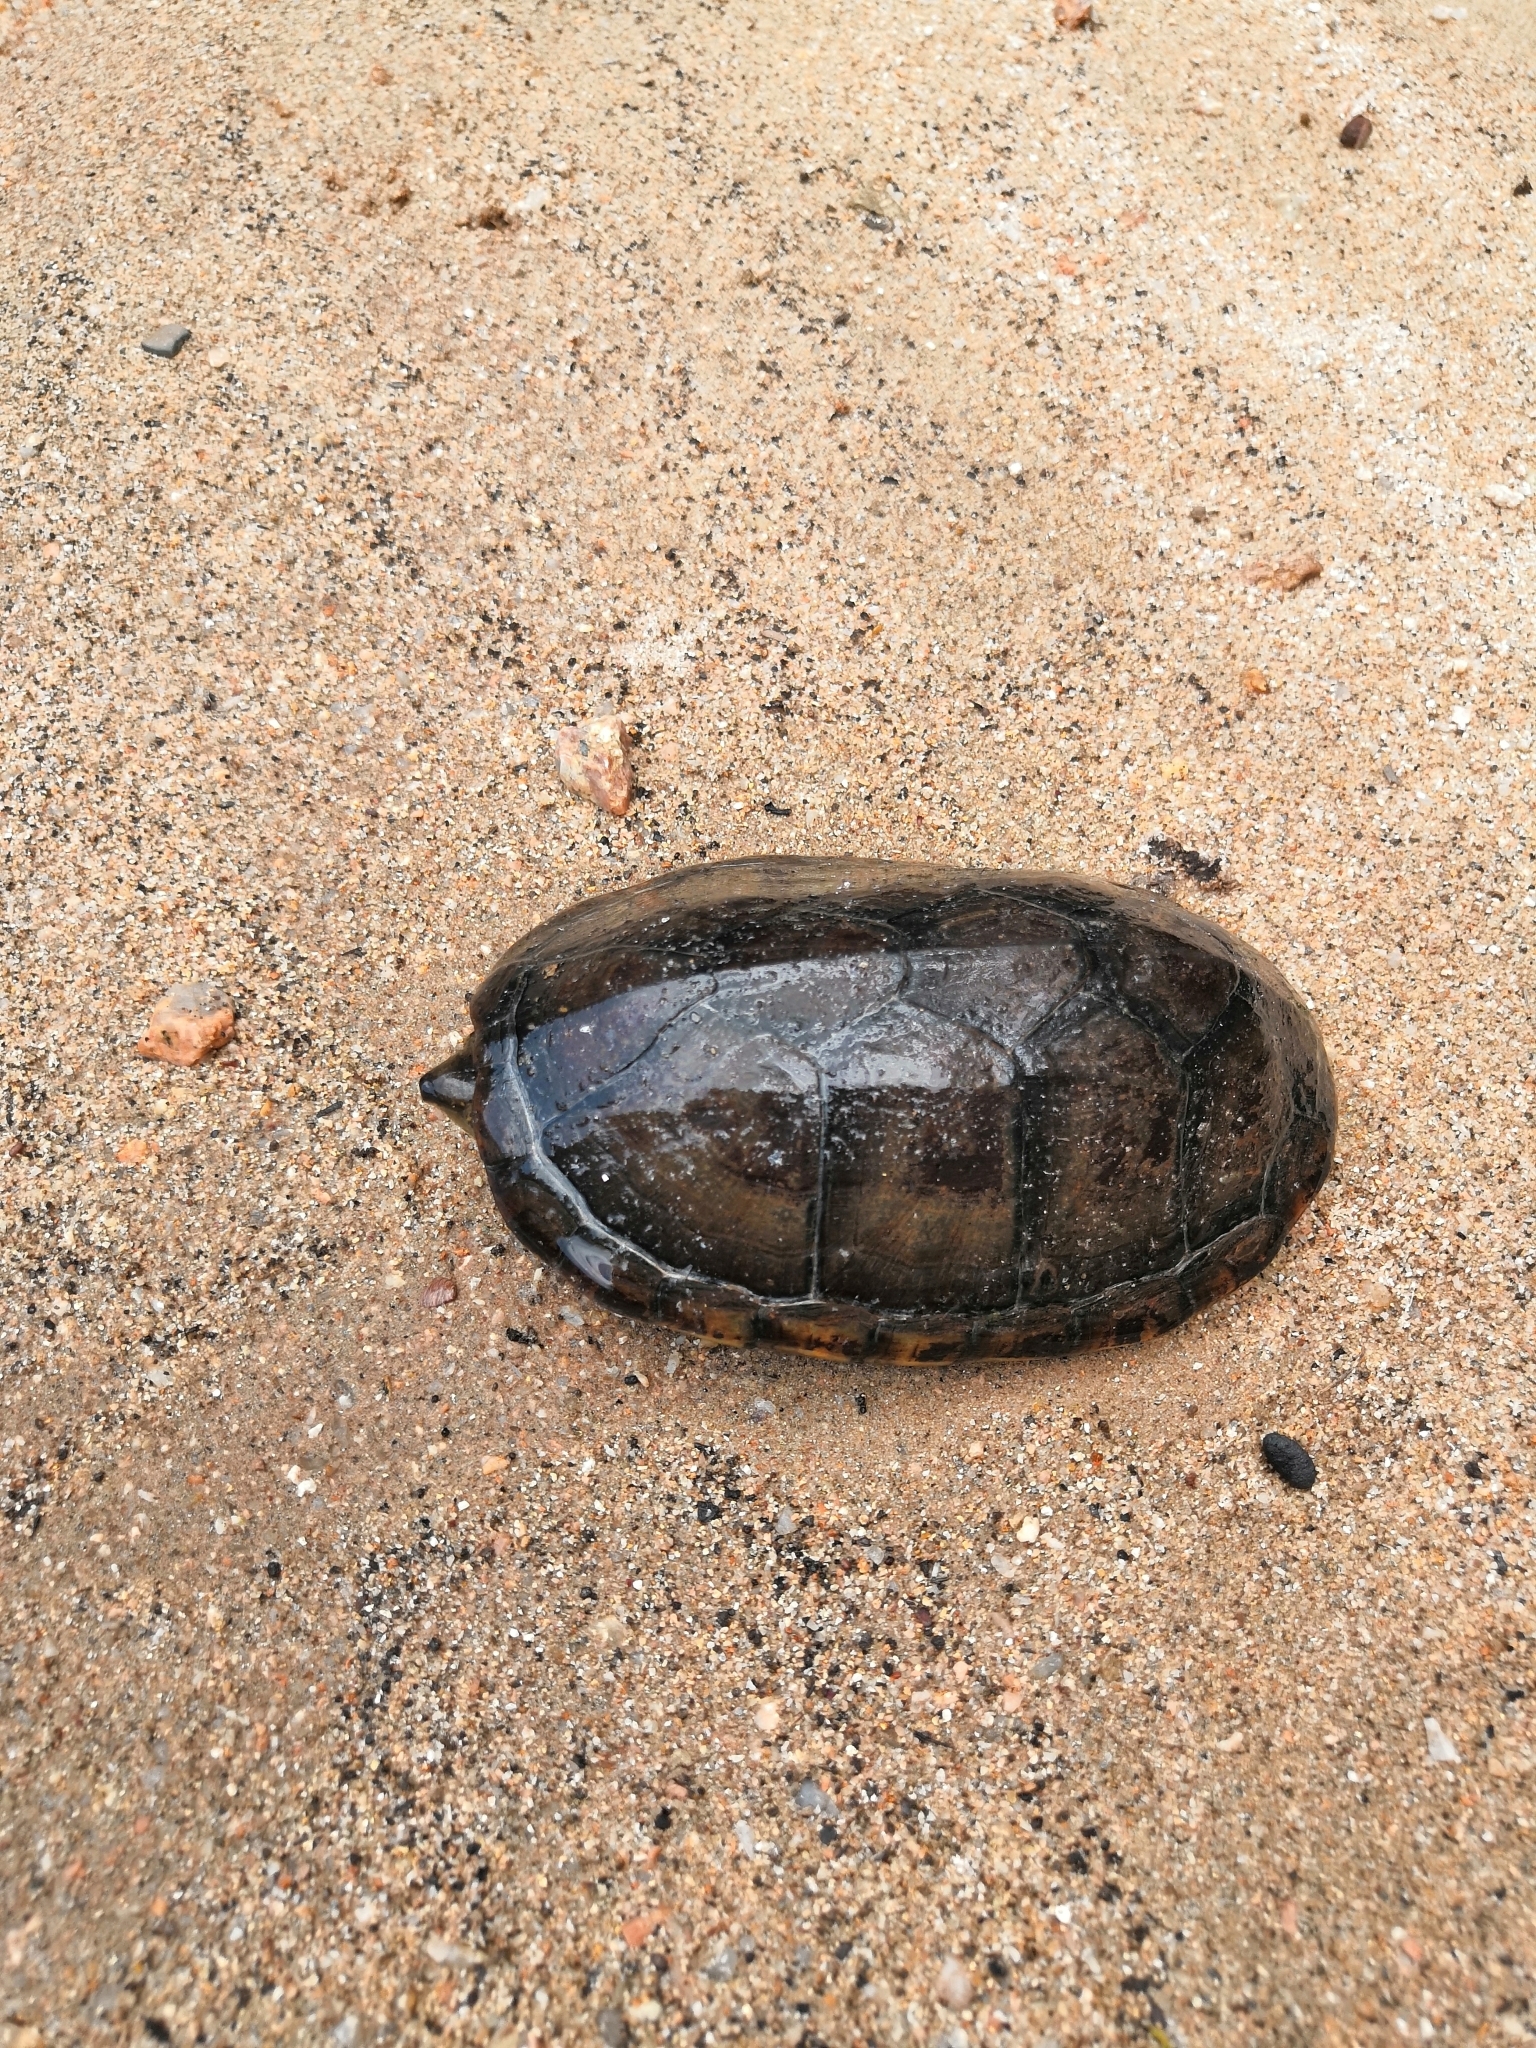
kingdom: Animalia
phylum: Chordata
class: Testudines
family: Kinosternidae
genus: Kinosternon
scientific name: Kinosternon chimalhuaca
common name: Jalisco mud turtle
